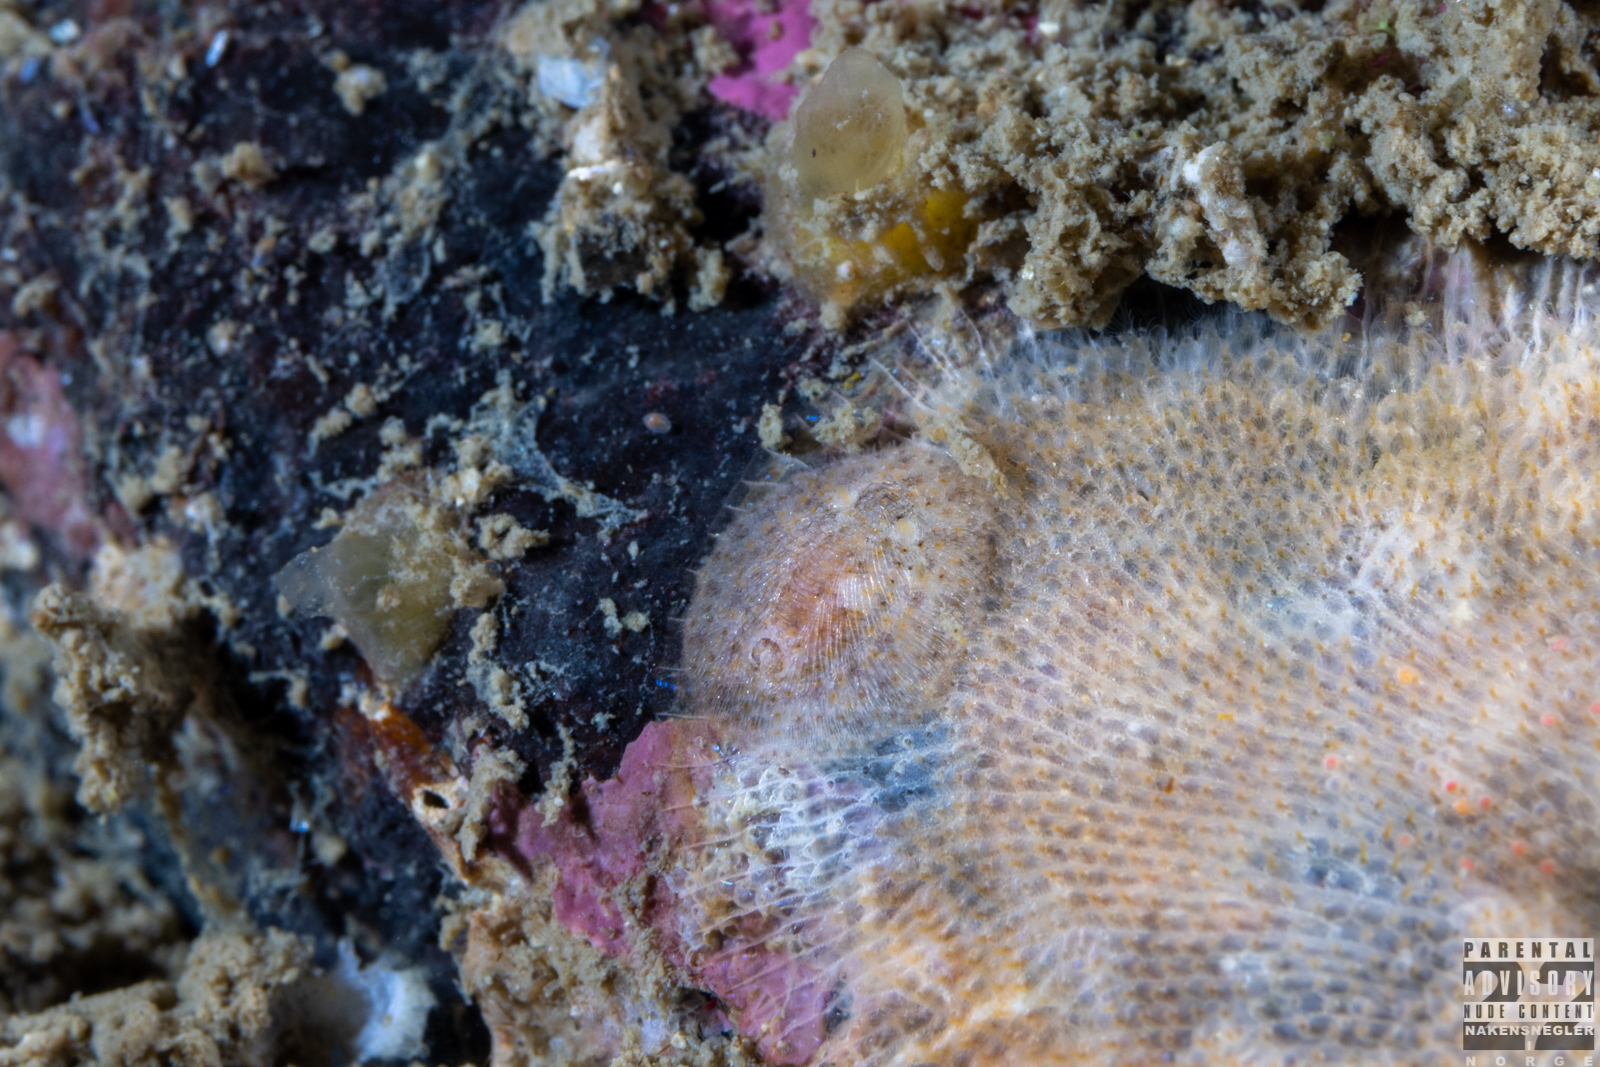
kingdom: Animalia
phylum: Mollusca
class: Gastropoda
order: Nudibranchia
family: Onchidorididae
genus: Idaliadoris
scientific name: Idaliadoris depressa
